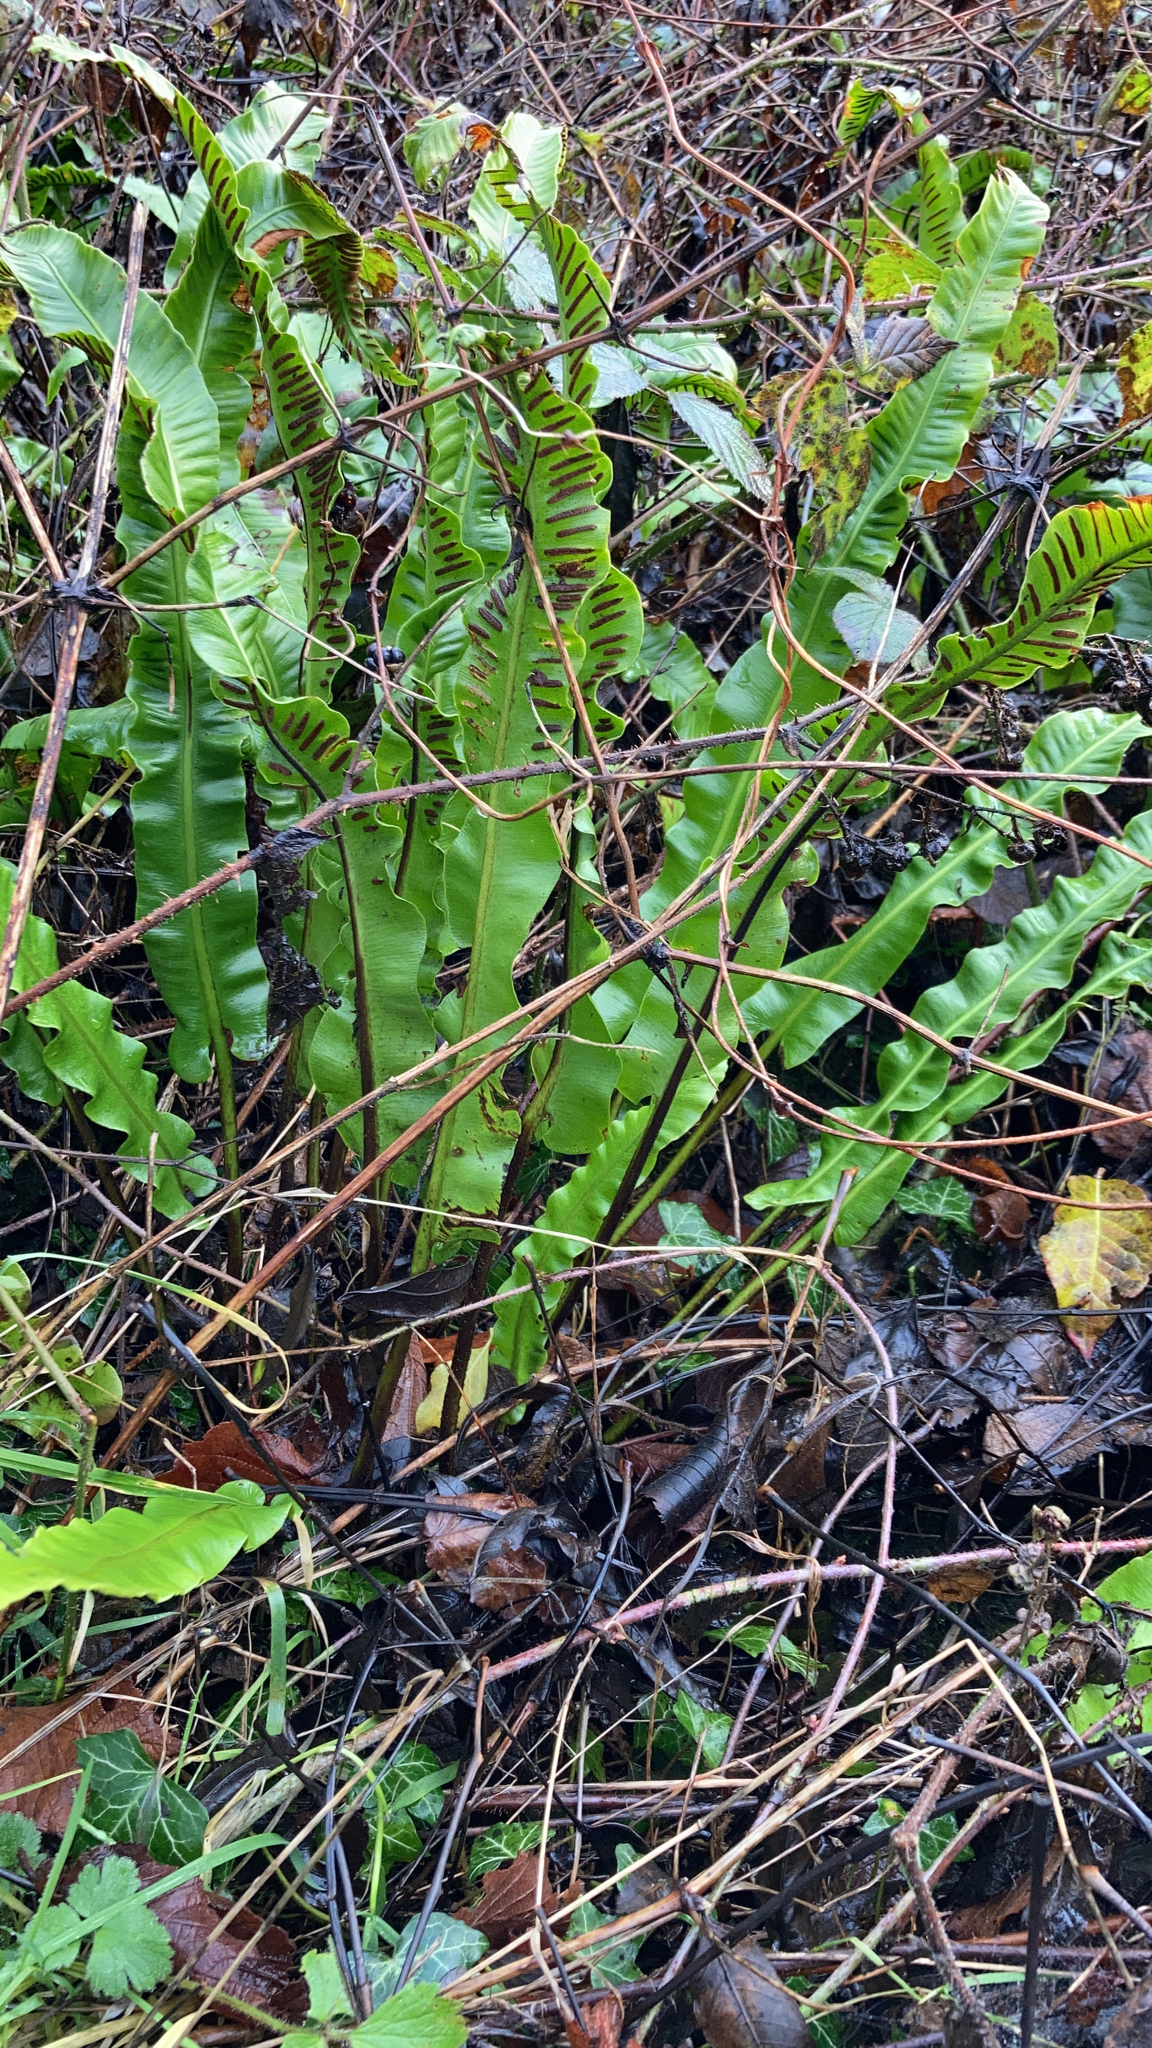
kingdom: Plantae
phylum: Tracheophyta
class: Polypodiopsida
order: Polypodiales
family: Aspleniaceae
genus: Asplenium
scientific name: Asplenium scolopendrium
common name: Hart's-tongue fern
